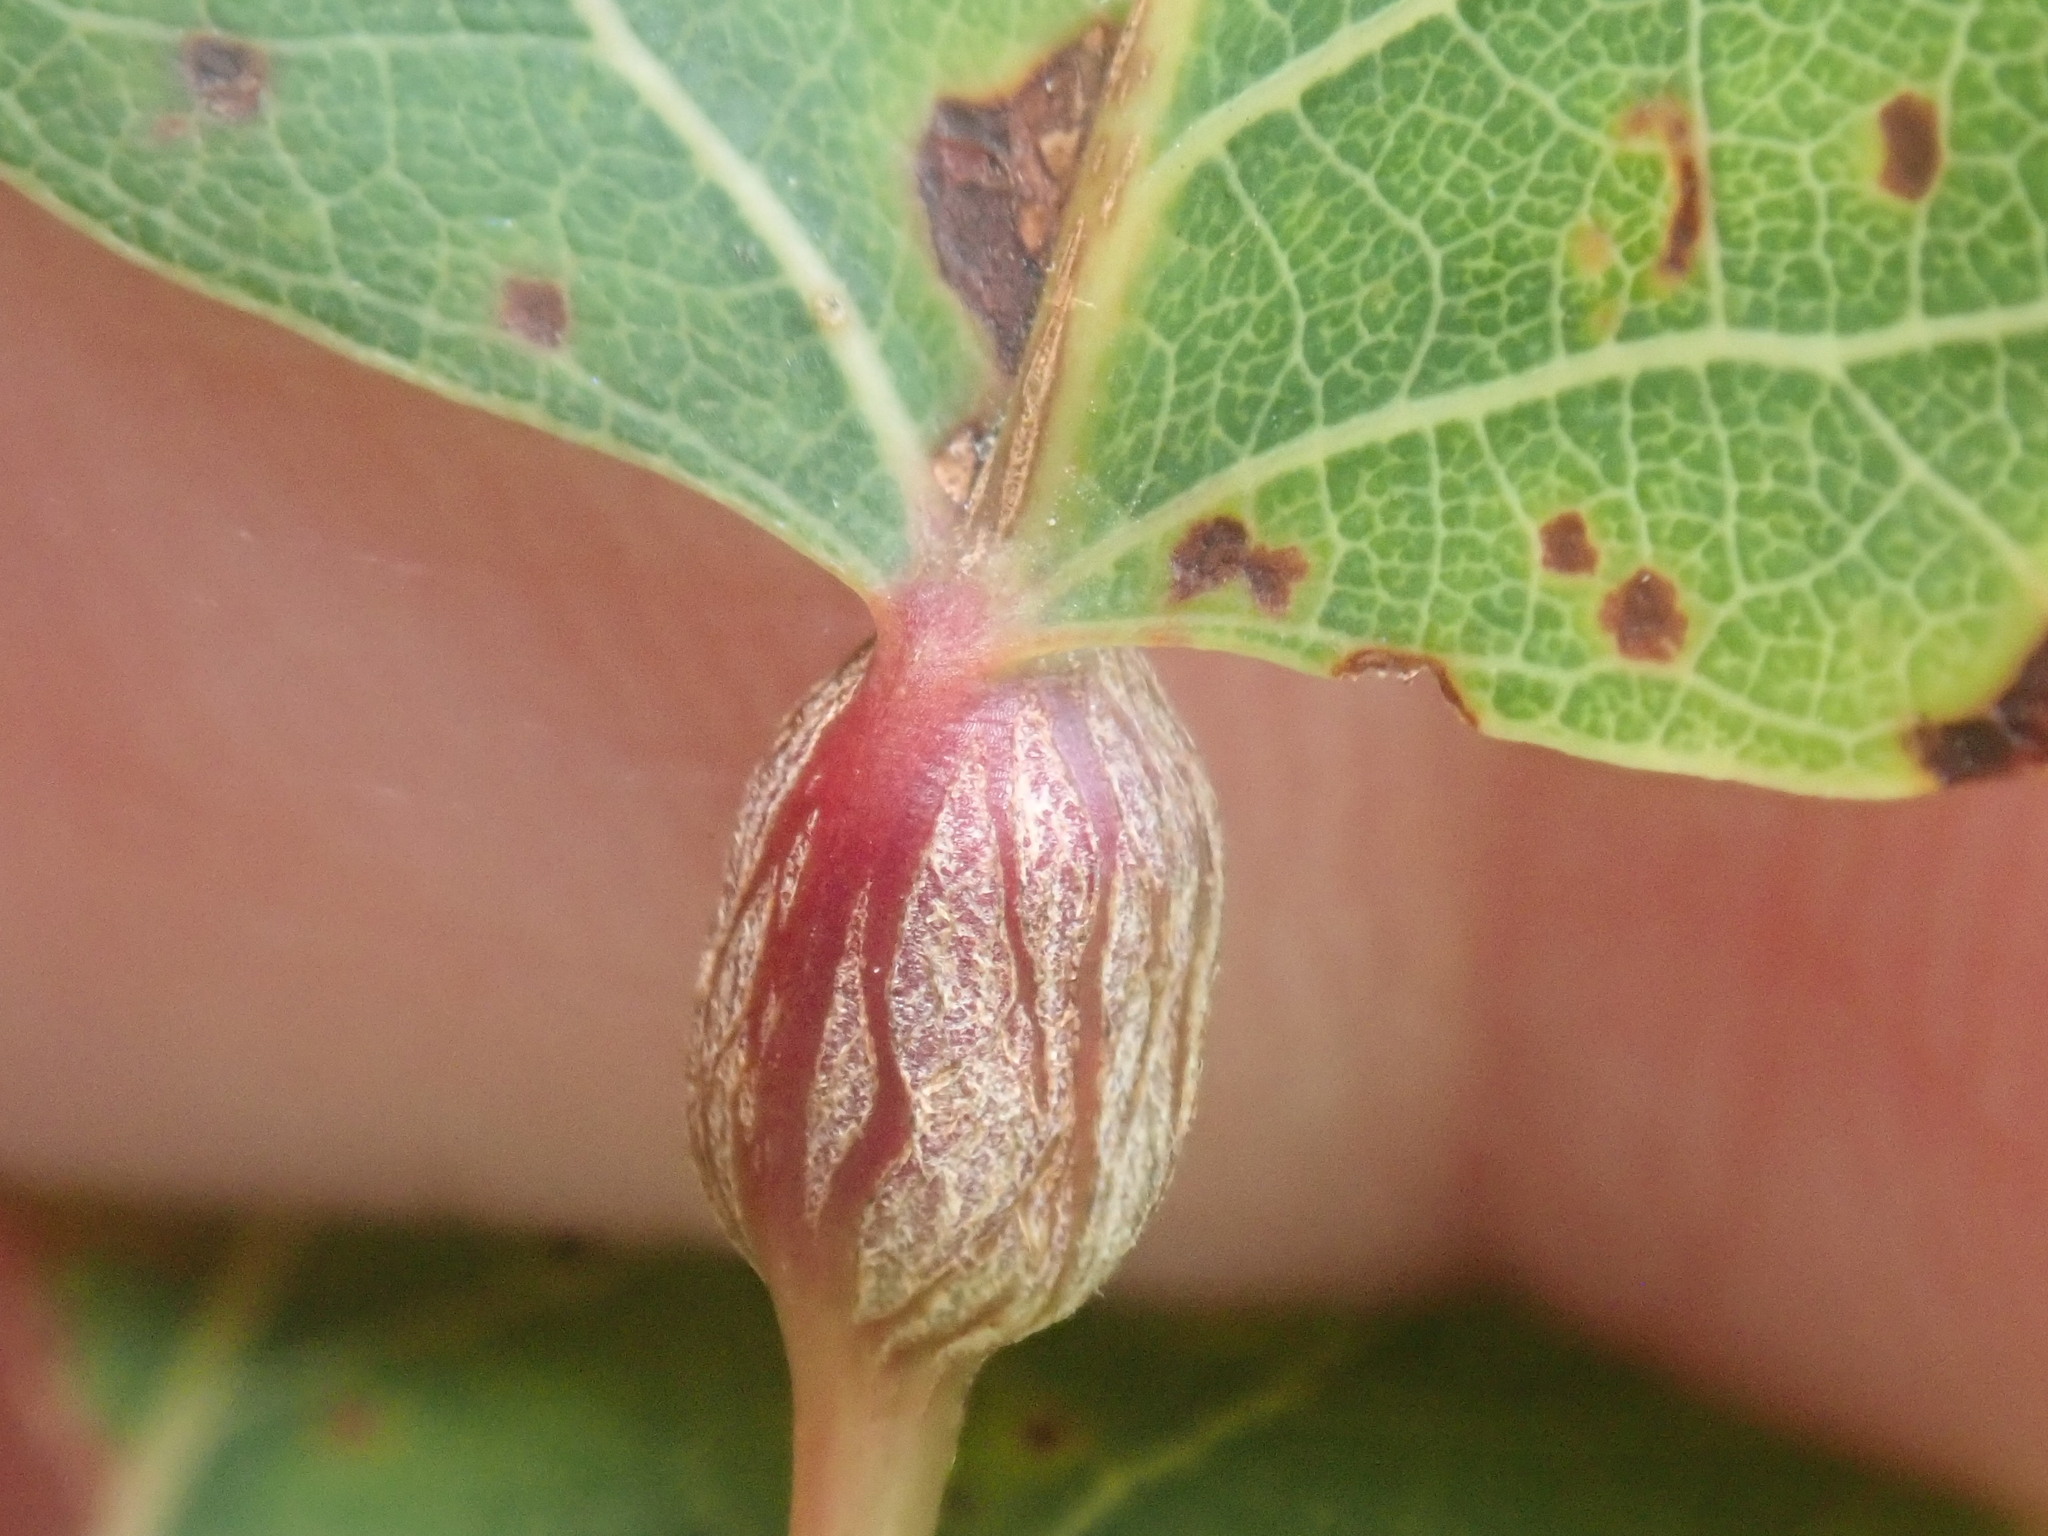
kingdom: Animalia
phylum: Arthropoda
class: Insecta
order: Lepidoptera
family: Nepticulidae
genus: Ectoedemia
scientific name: Ectoedemia populella
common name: Aspen petiole gall moth
